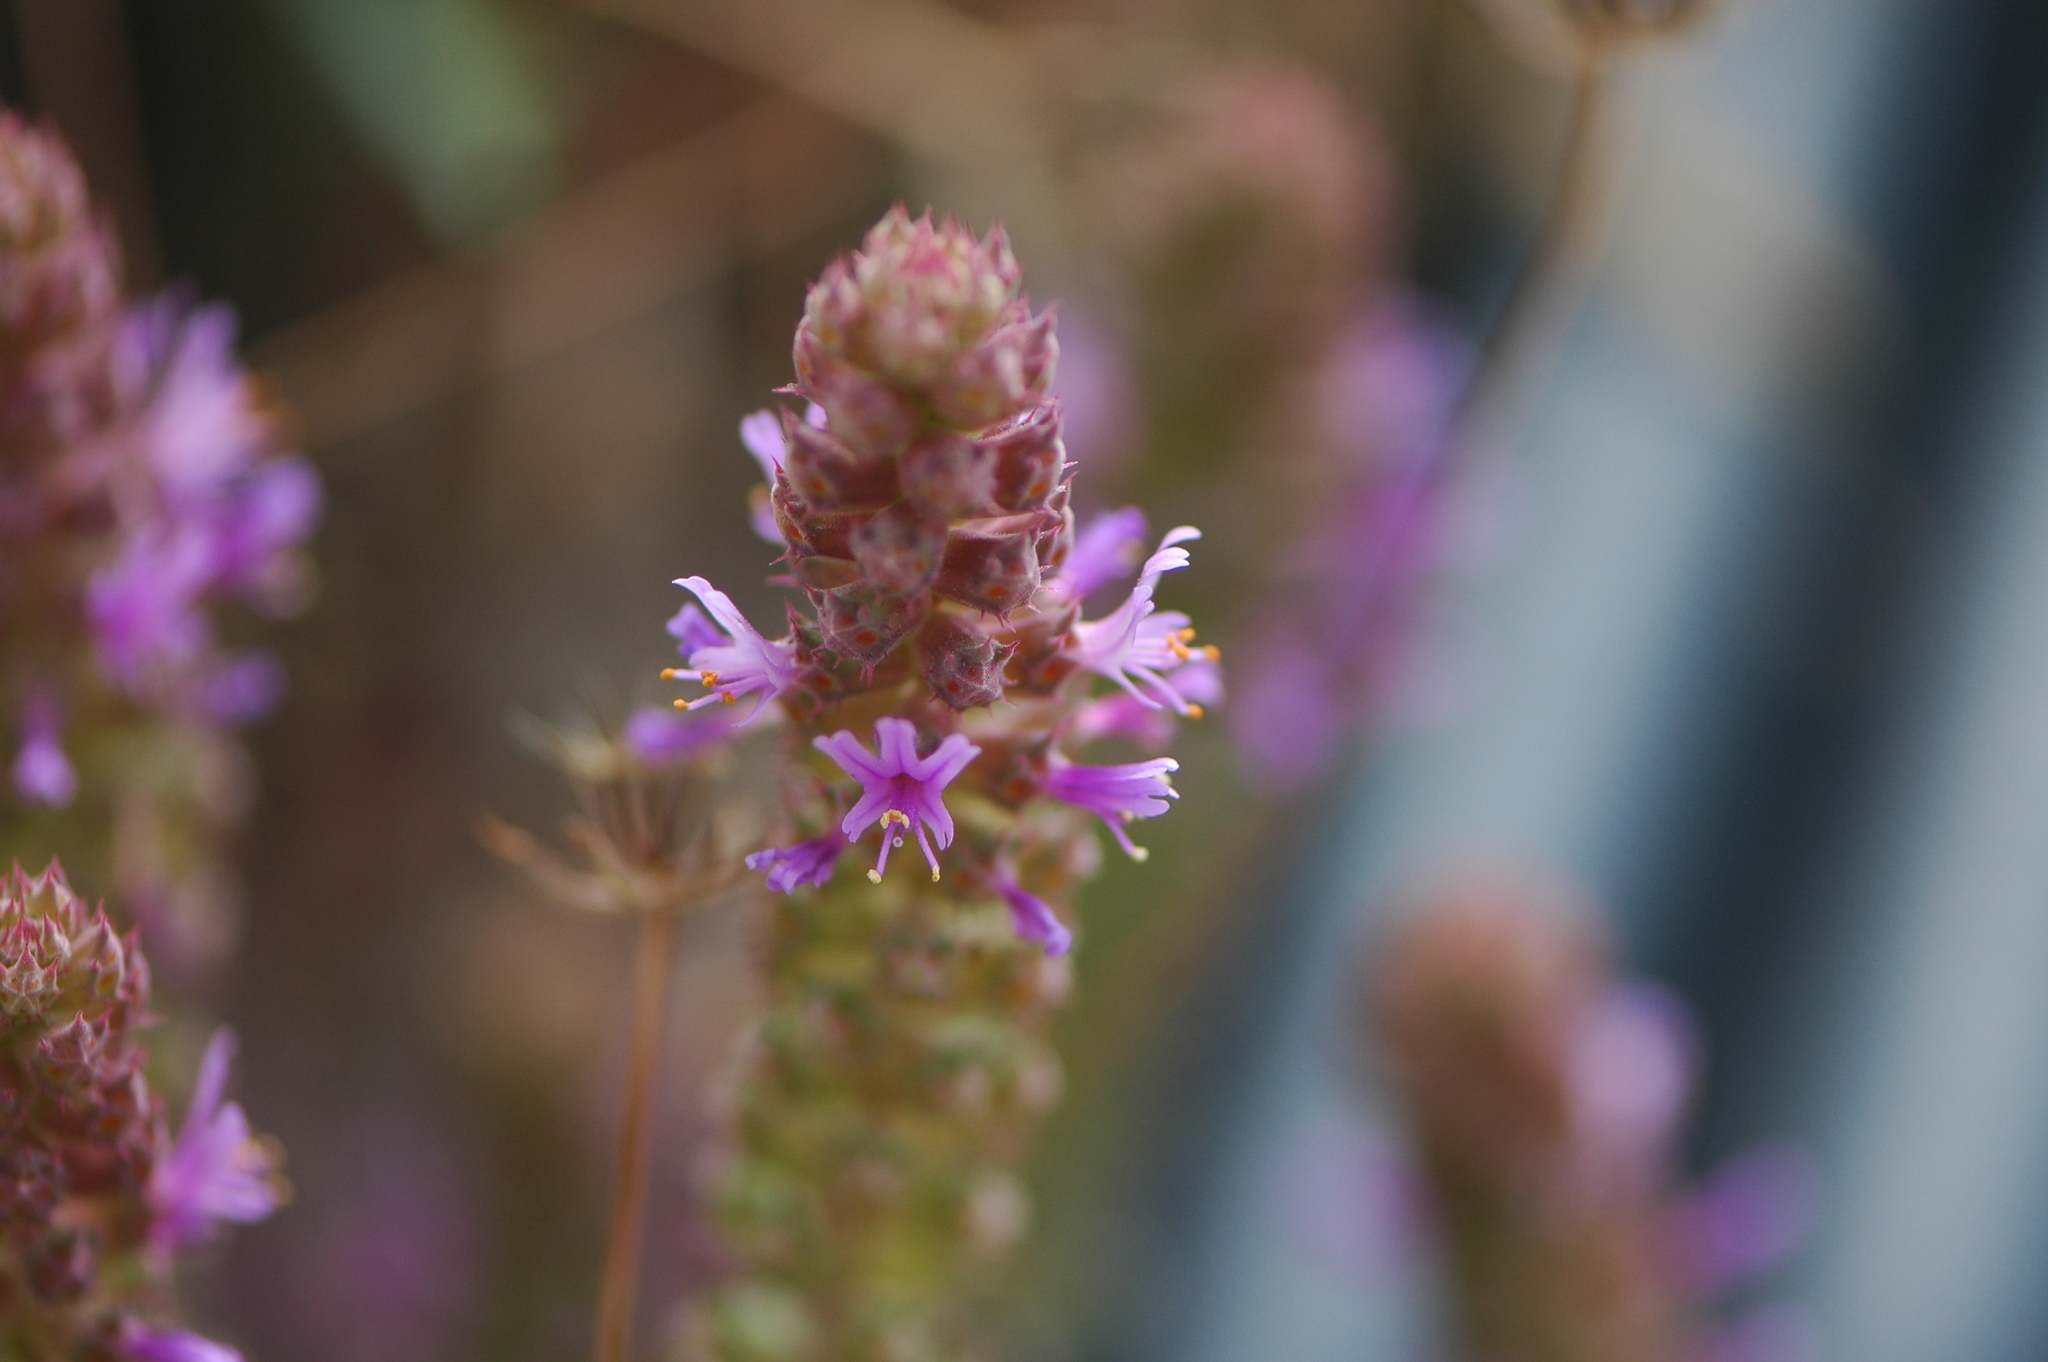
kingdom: Plantae
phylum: Tracheophyta
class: Magnoliopsida
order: Ericales
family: Primulaceae
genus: Coris
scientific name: Coris monspeliensis
